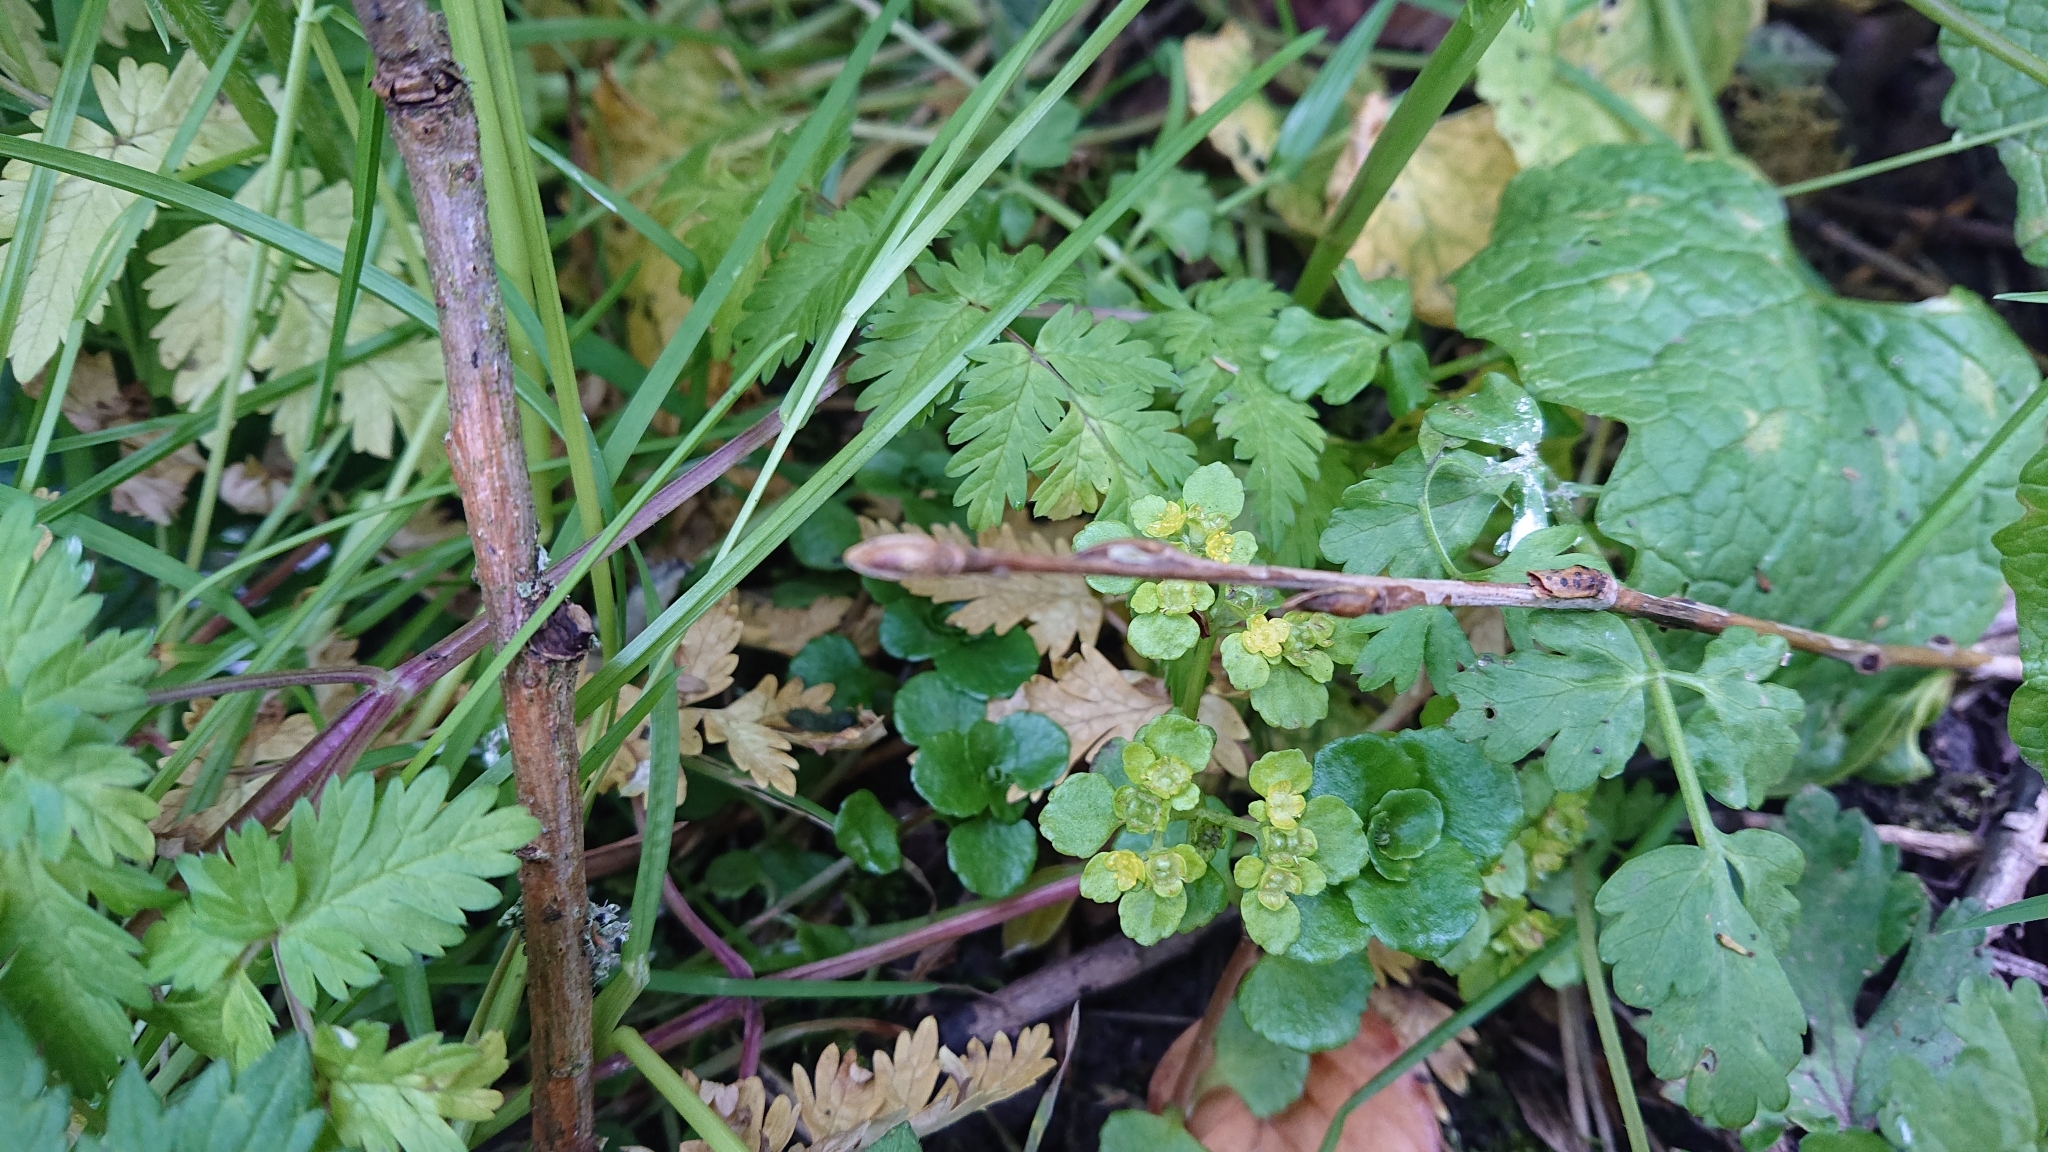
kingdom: Plantae
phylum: Tracheophyta
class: Magnoliopsida
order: Saxifragales
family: Saxifragaceae
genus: Chrysosplenium
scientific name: Chrysosplenium oppositifolium
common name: Opposite-leaved golden-saxifrage
